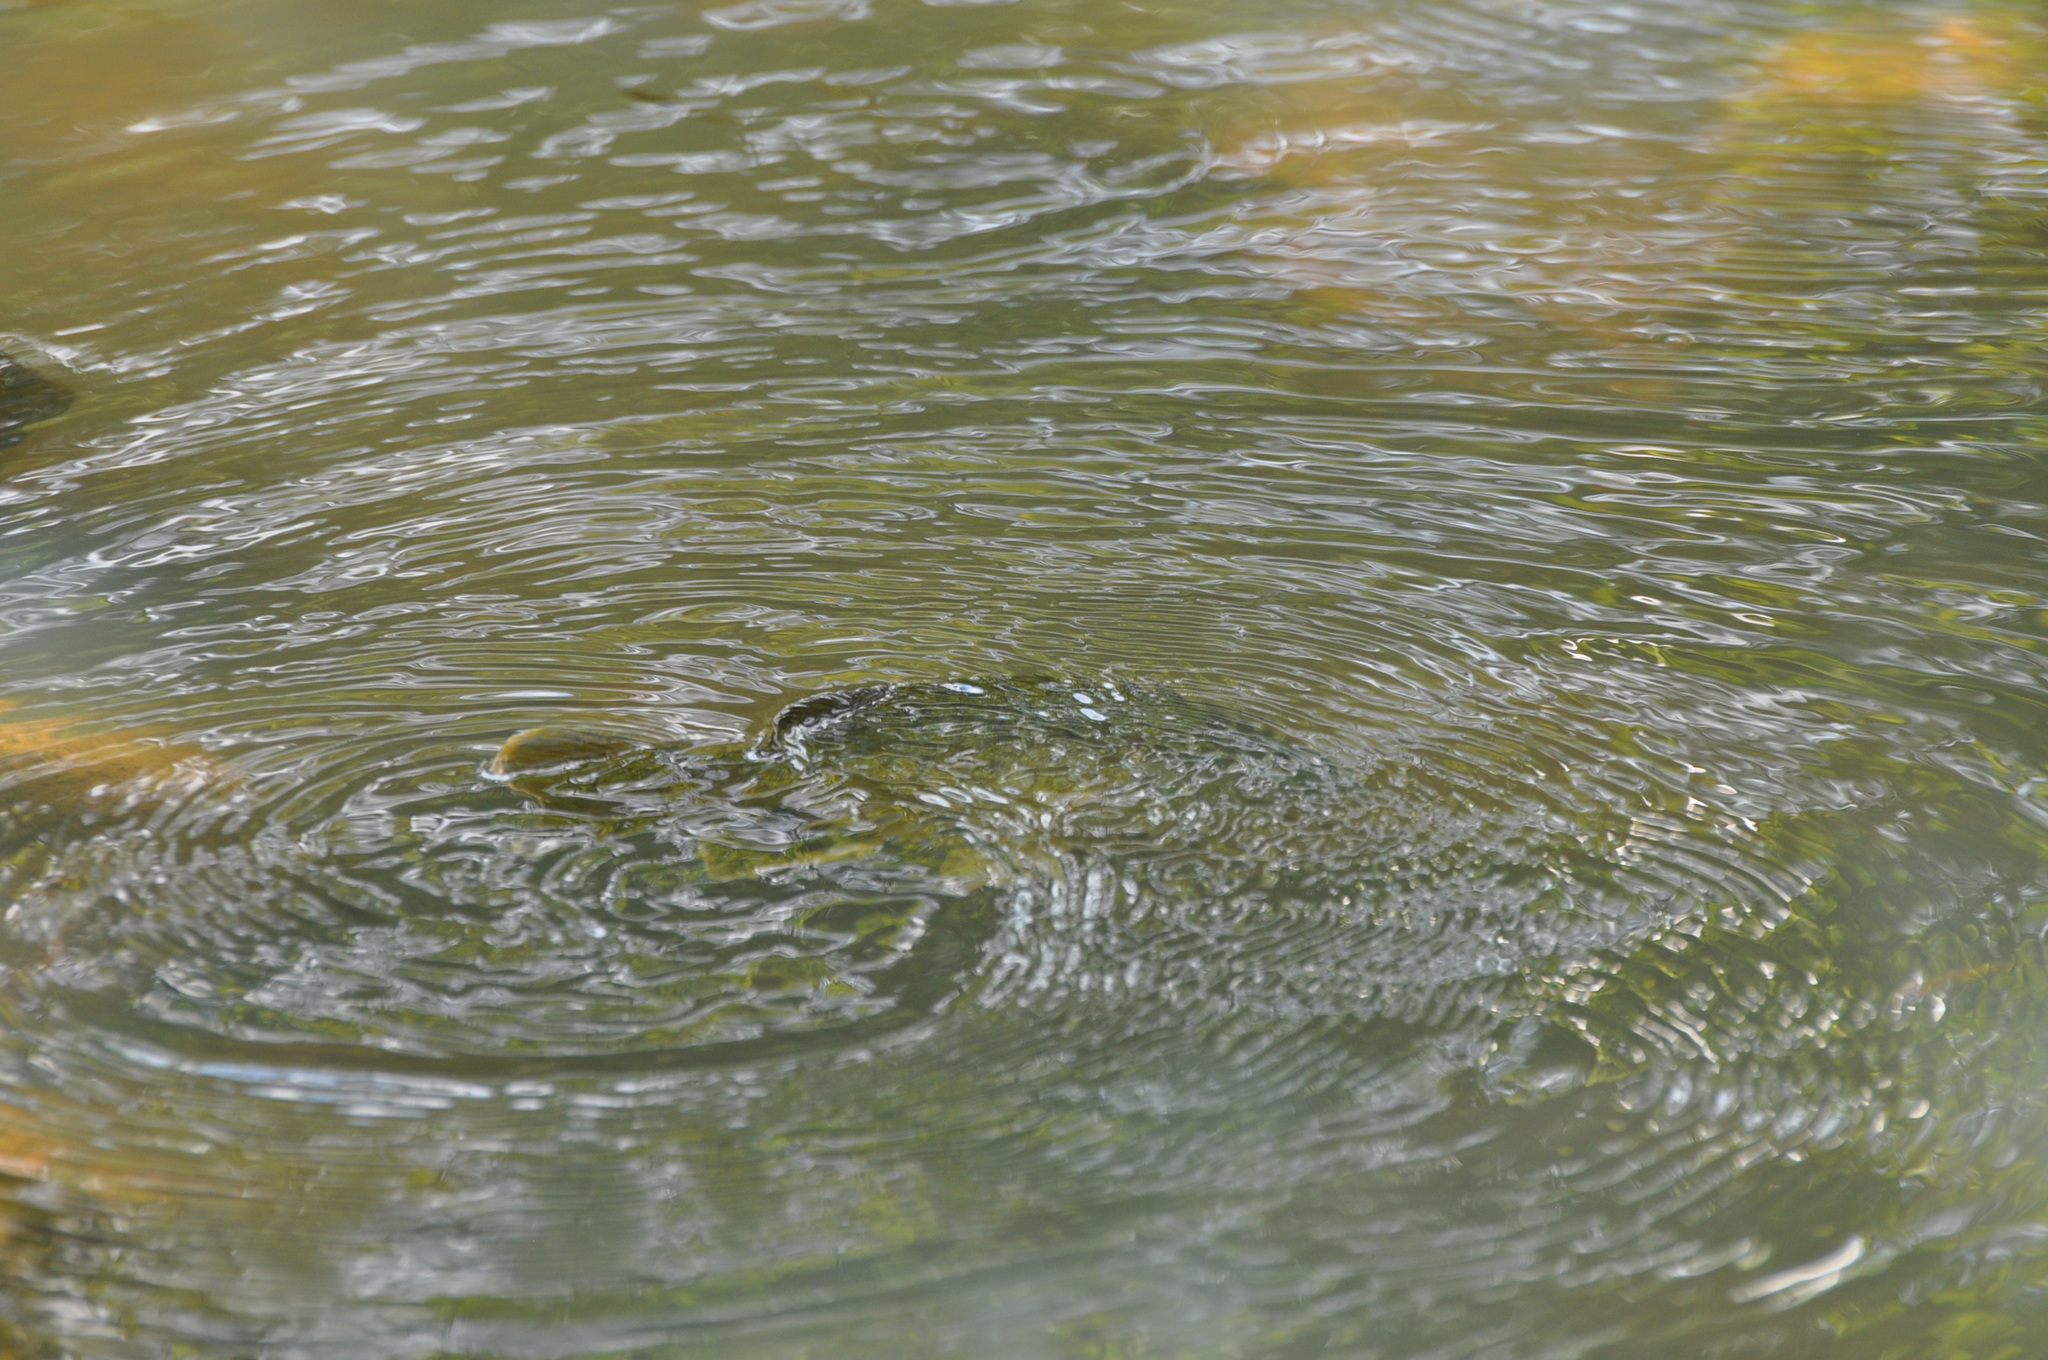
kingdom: Animalia
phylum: Chordata
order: Perciformes
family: Centrarchidae
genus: Lepomis
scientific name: Lepomis cyanellus
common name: Green sunfish
